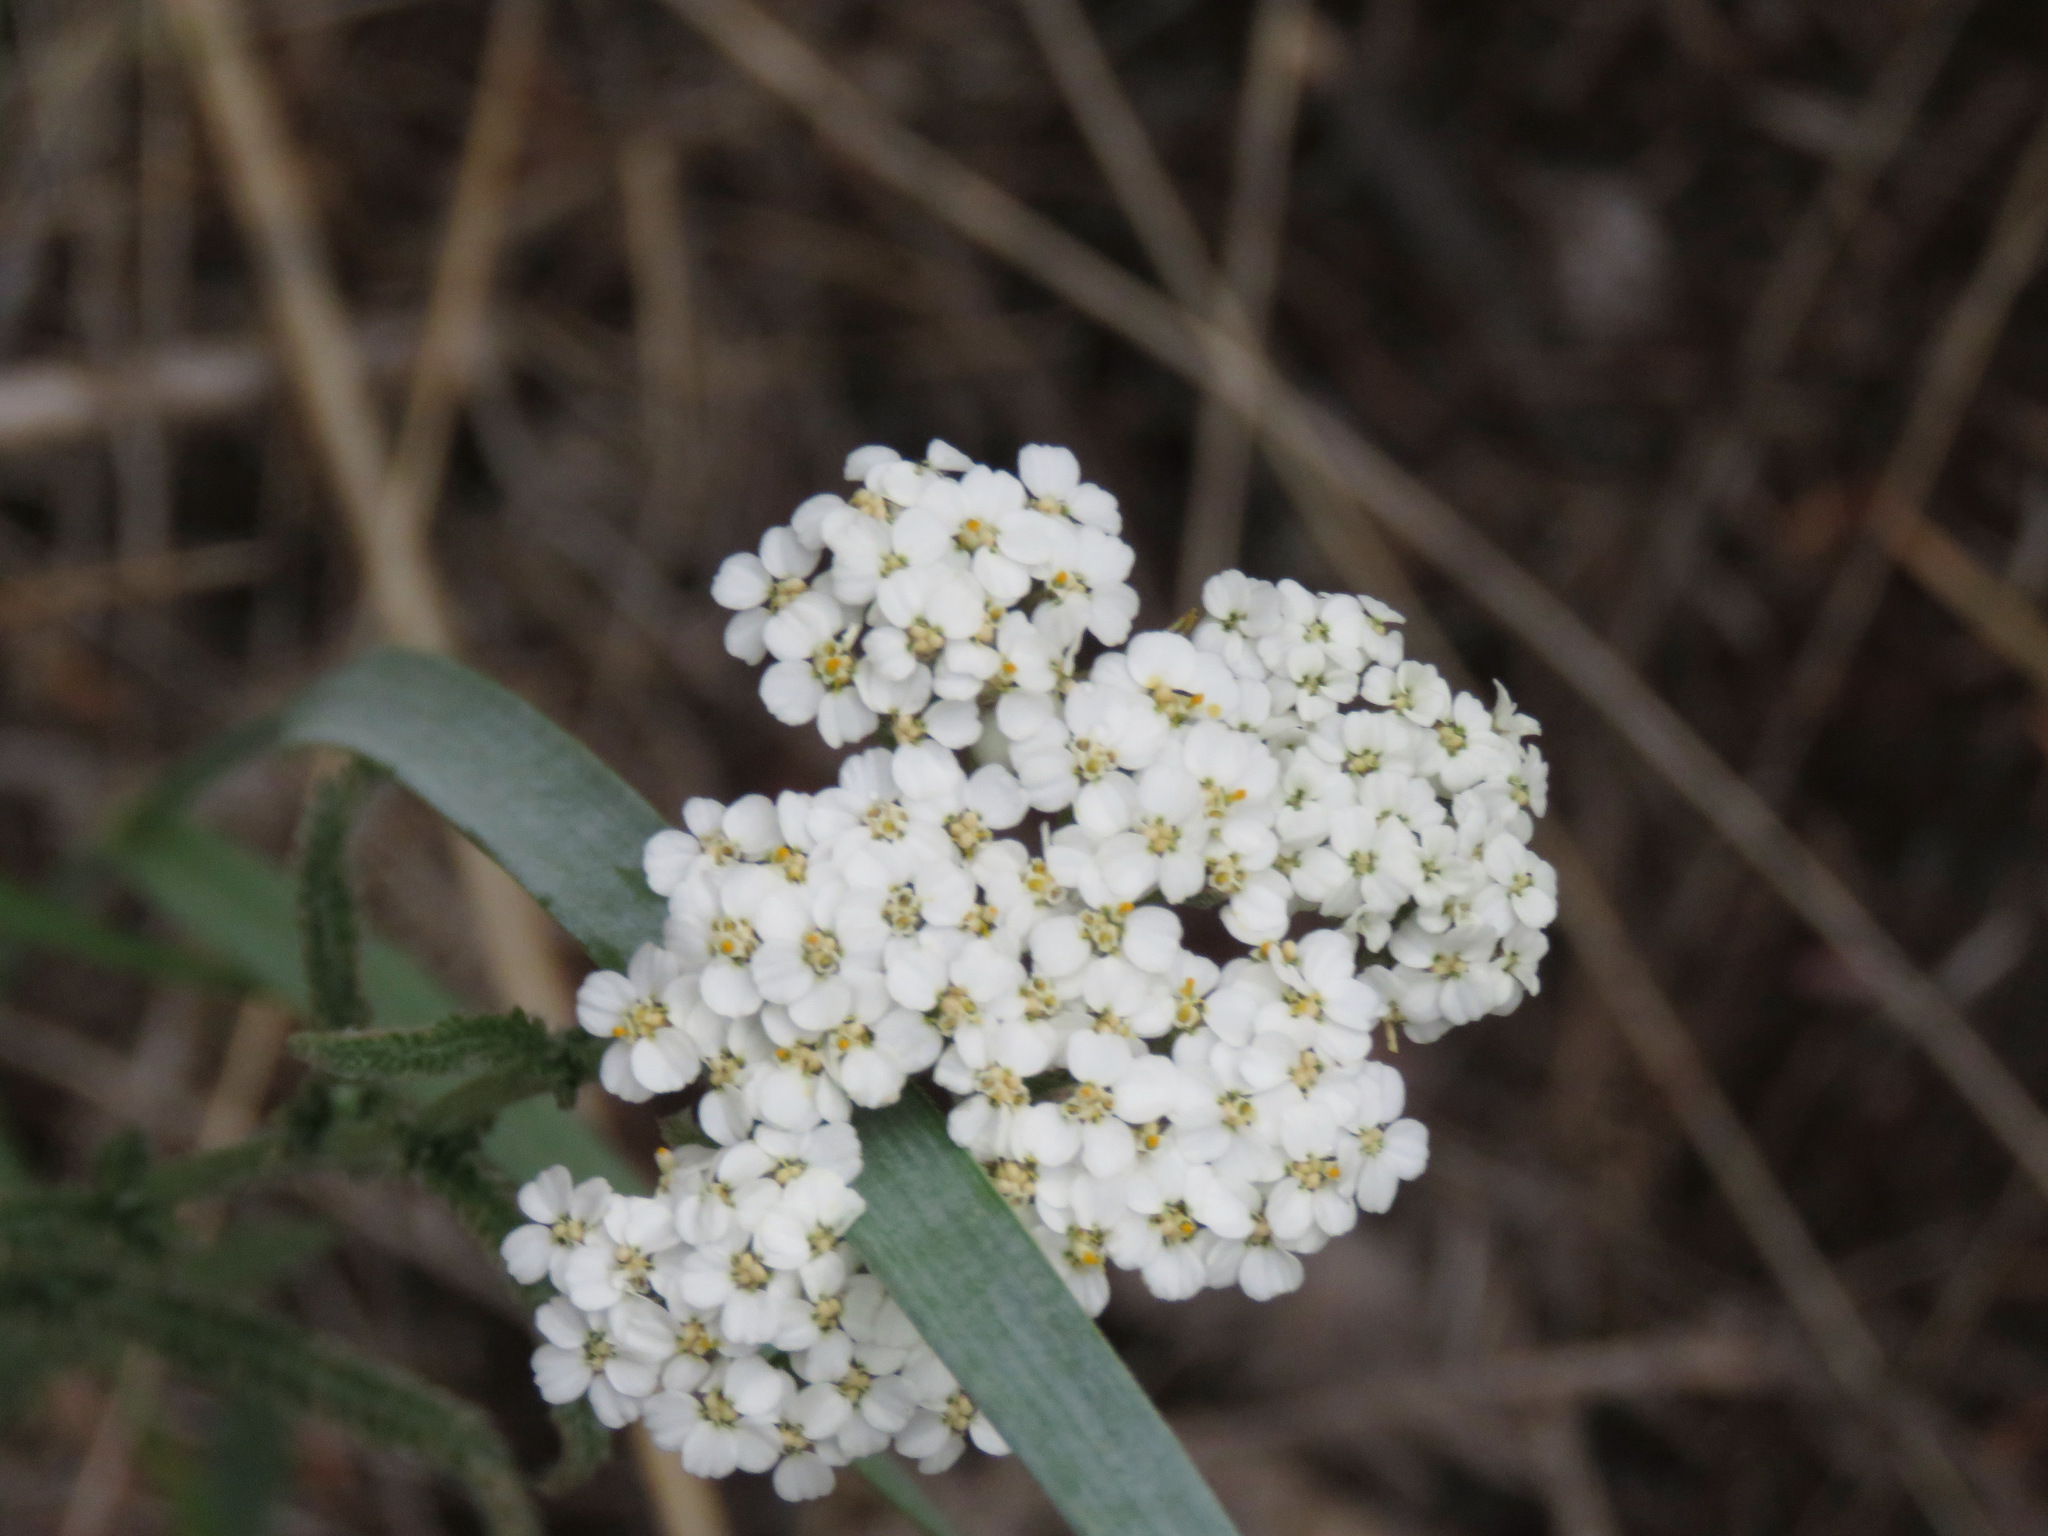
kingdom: Plantae
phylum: Tracheophyta
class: Magnoliopsida
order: Asterales
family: Asteraceae
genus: Achillea
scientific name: Achillea millefolium
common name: Yarrow
